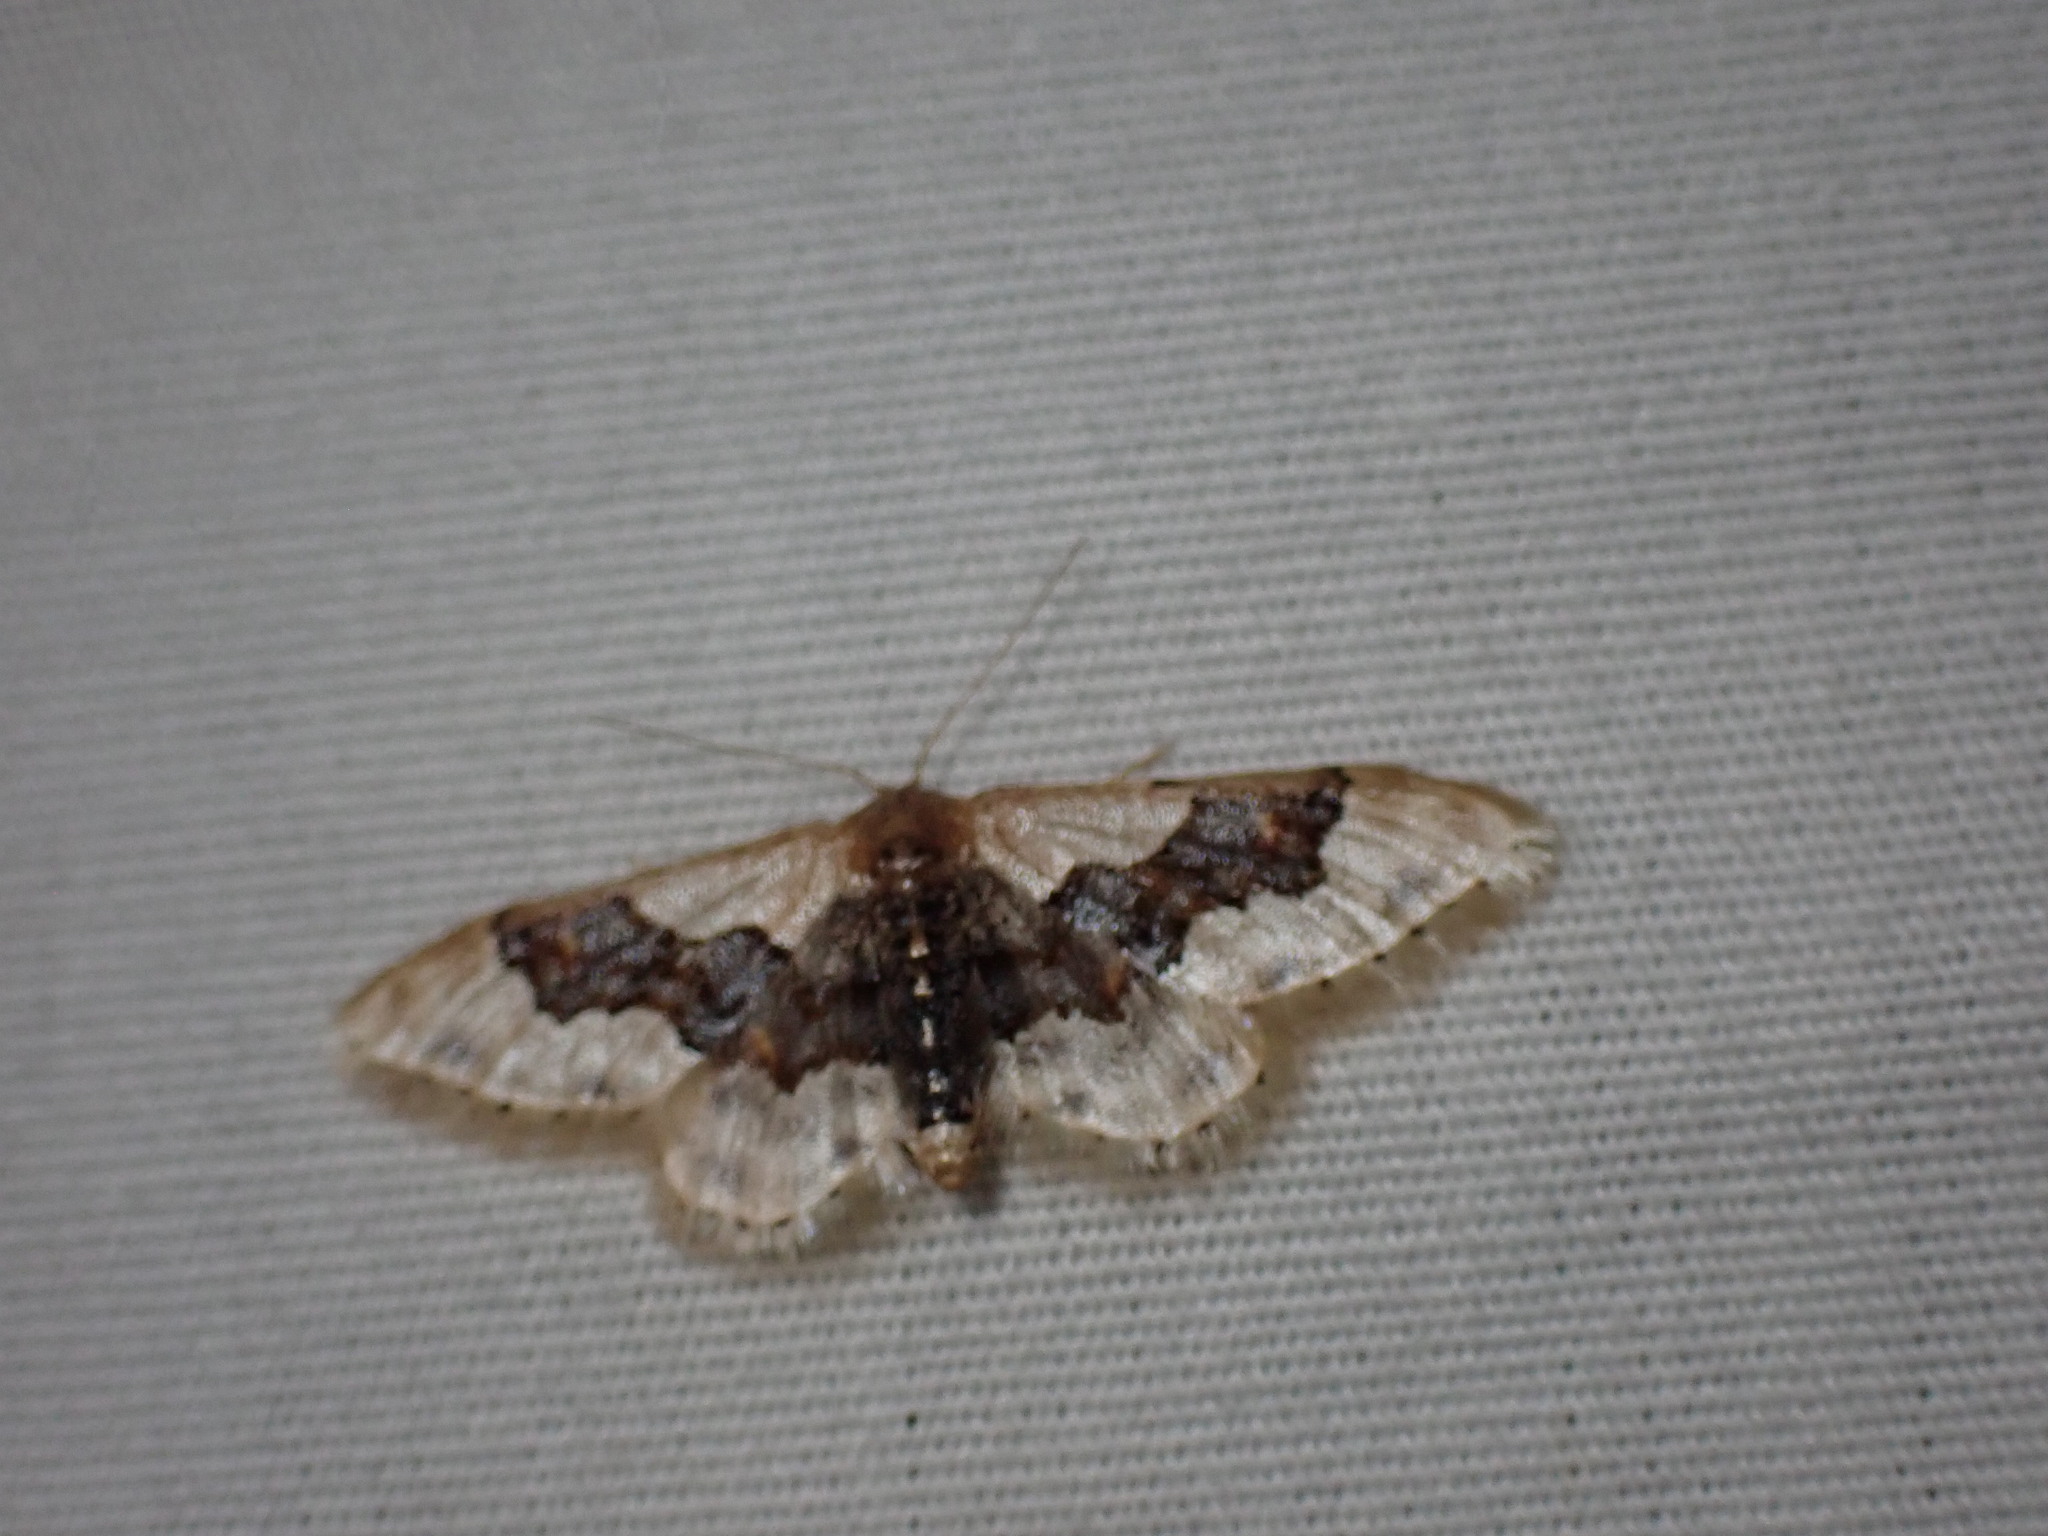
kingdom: Animalia
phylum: Arthropoda
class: Insecta
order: Lepidoptera
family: Geometridae
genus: Idaea
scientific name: Idaea gemmata
